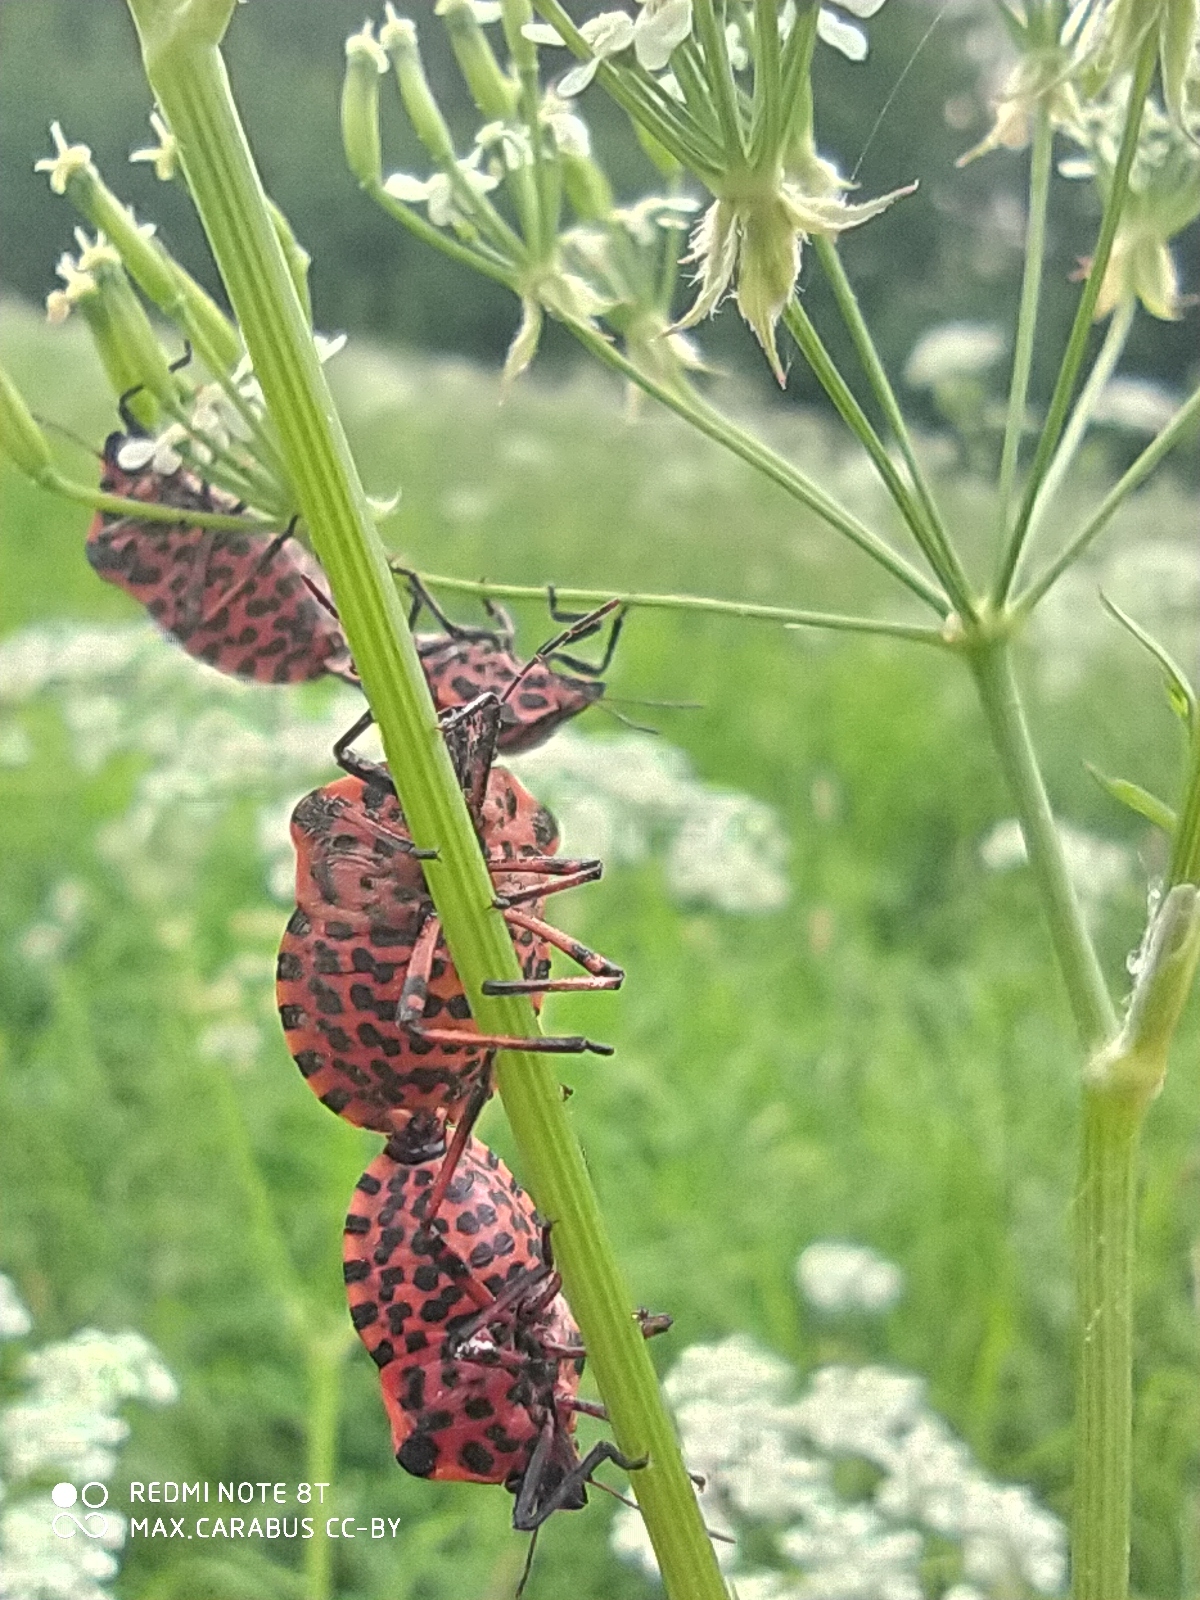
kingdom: Animalia
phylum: Arthropoda
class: Insecta
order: Hemiptera
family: Pentatomidae
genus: Graphosoma
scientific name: Graphosoma italicum
